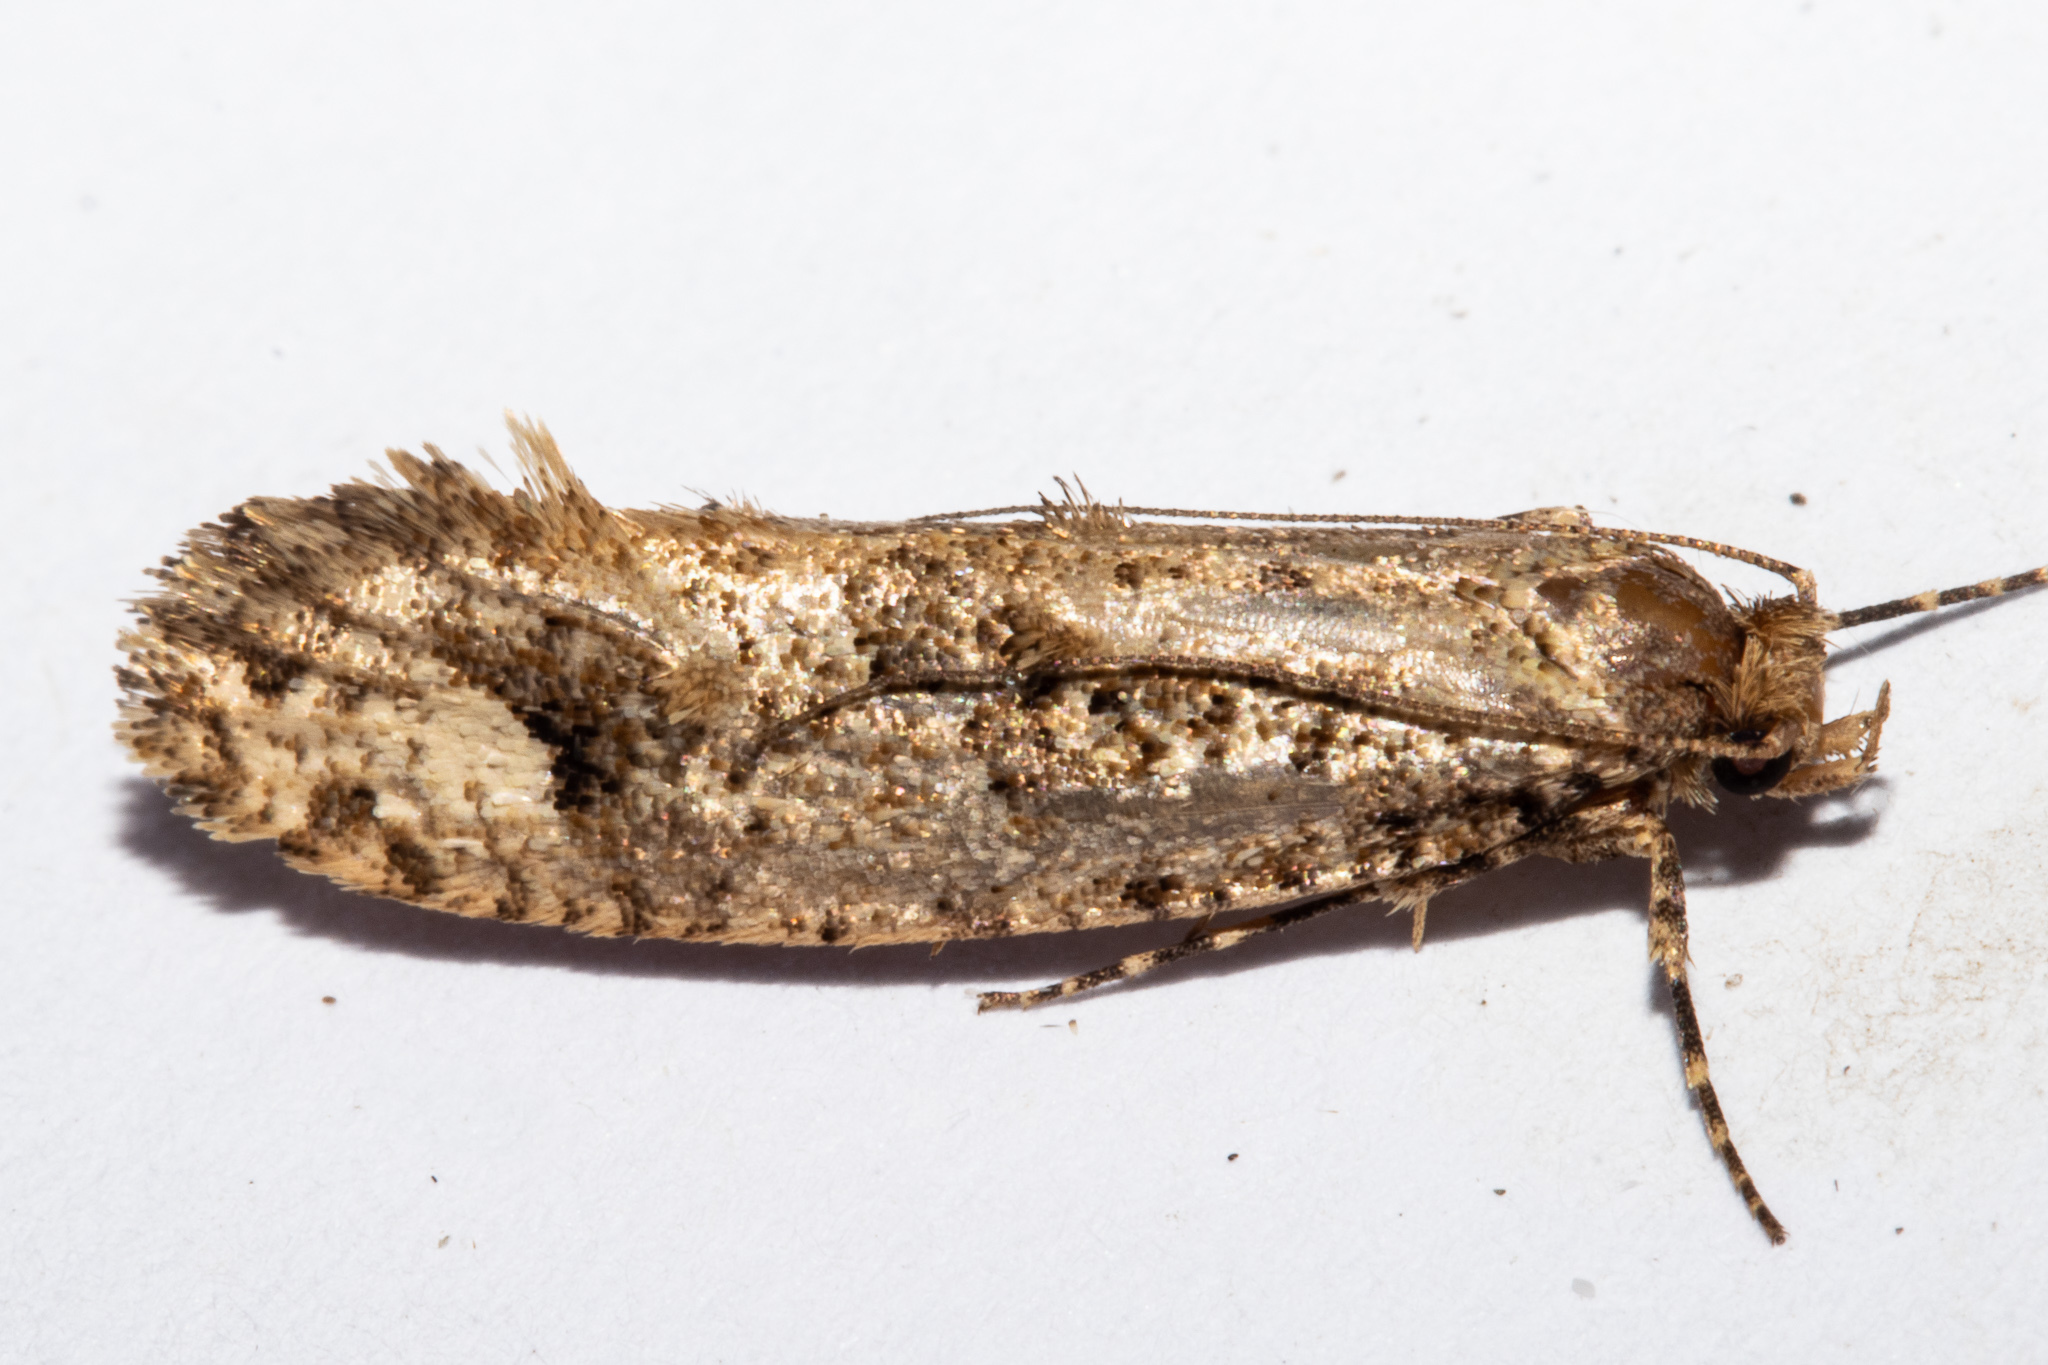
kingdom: Animalia
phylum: Arthropoda
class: Insecta
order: Lepidoptera
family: Tineidae
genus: Lysiphragma
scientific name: Lysiphragma epixyla
